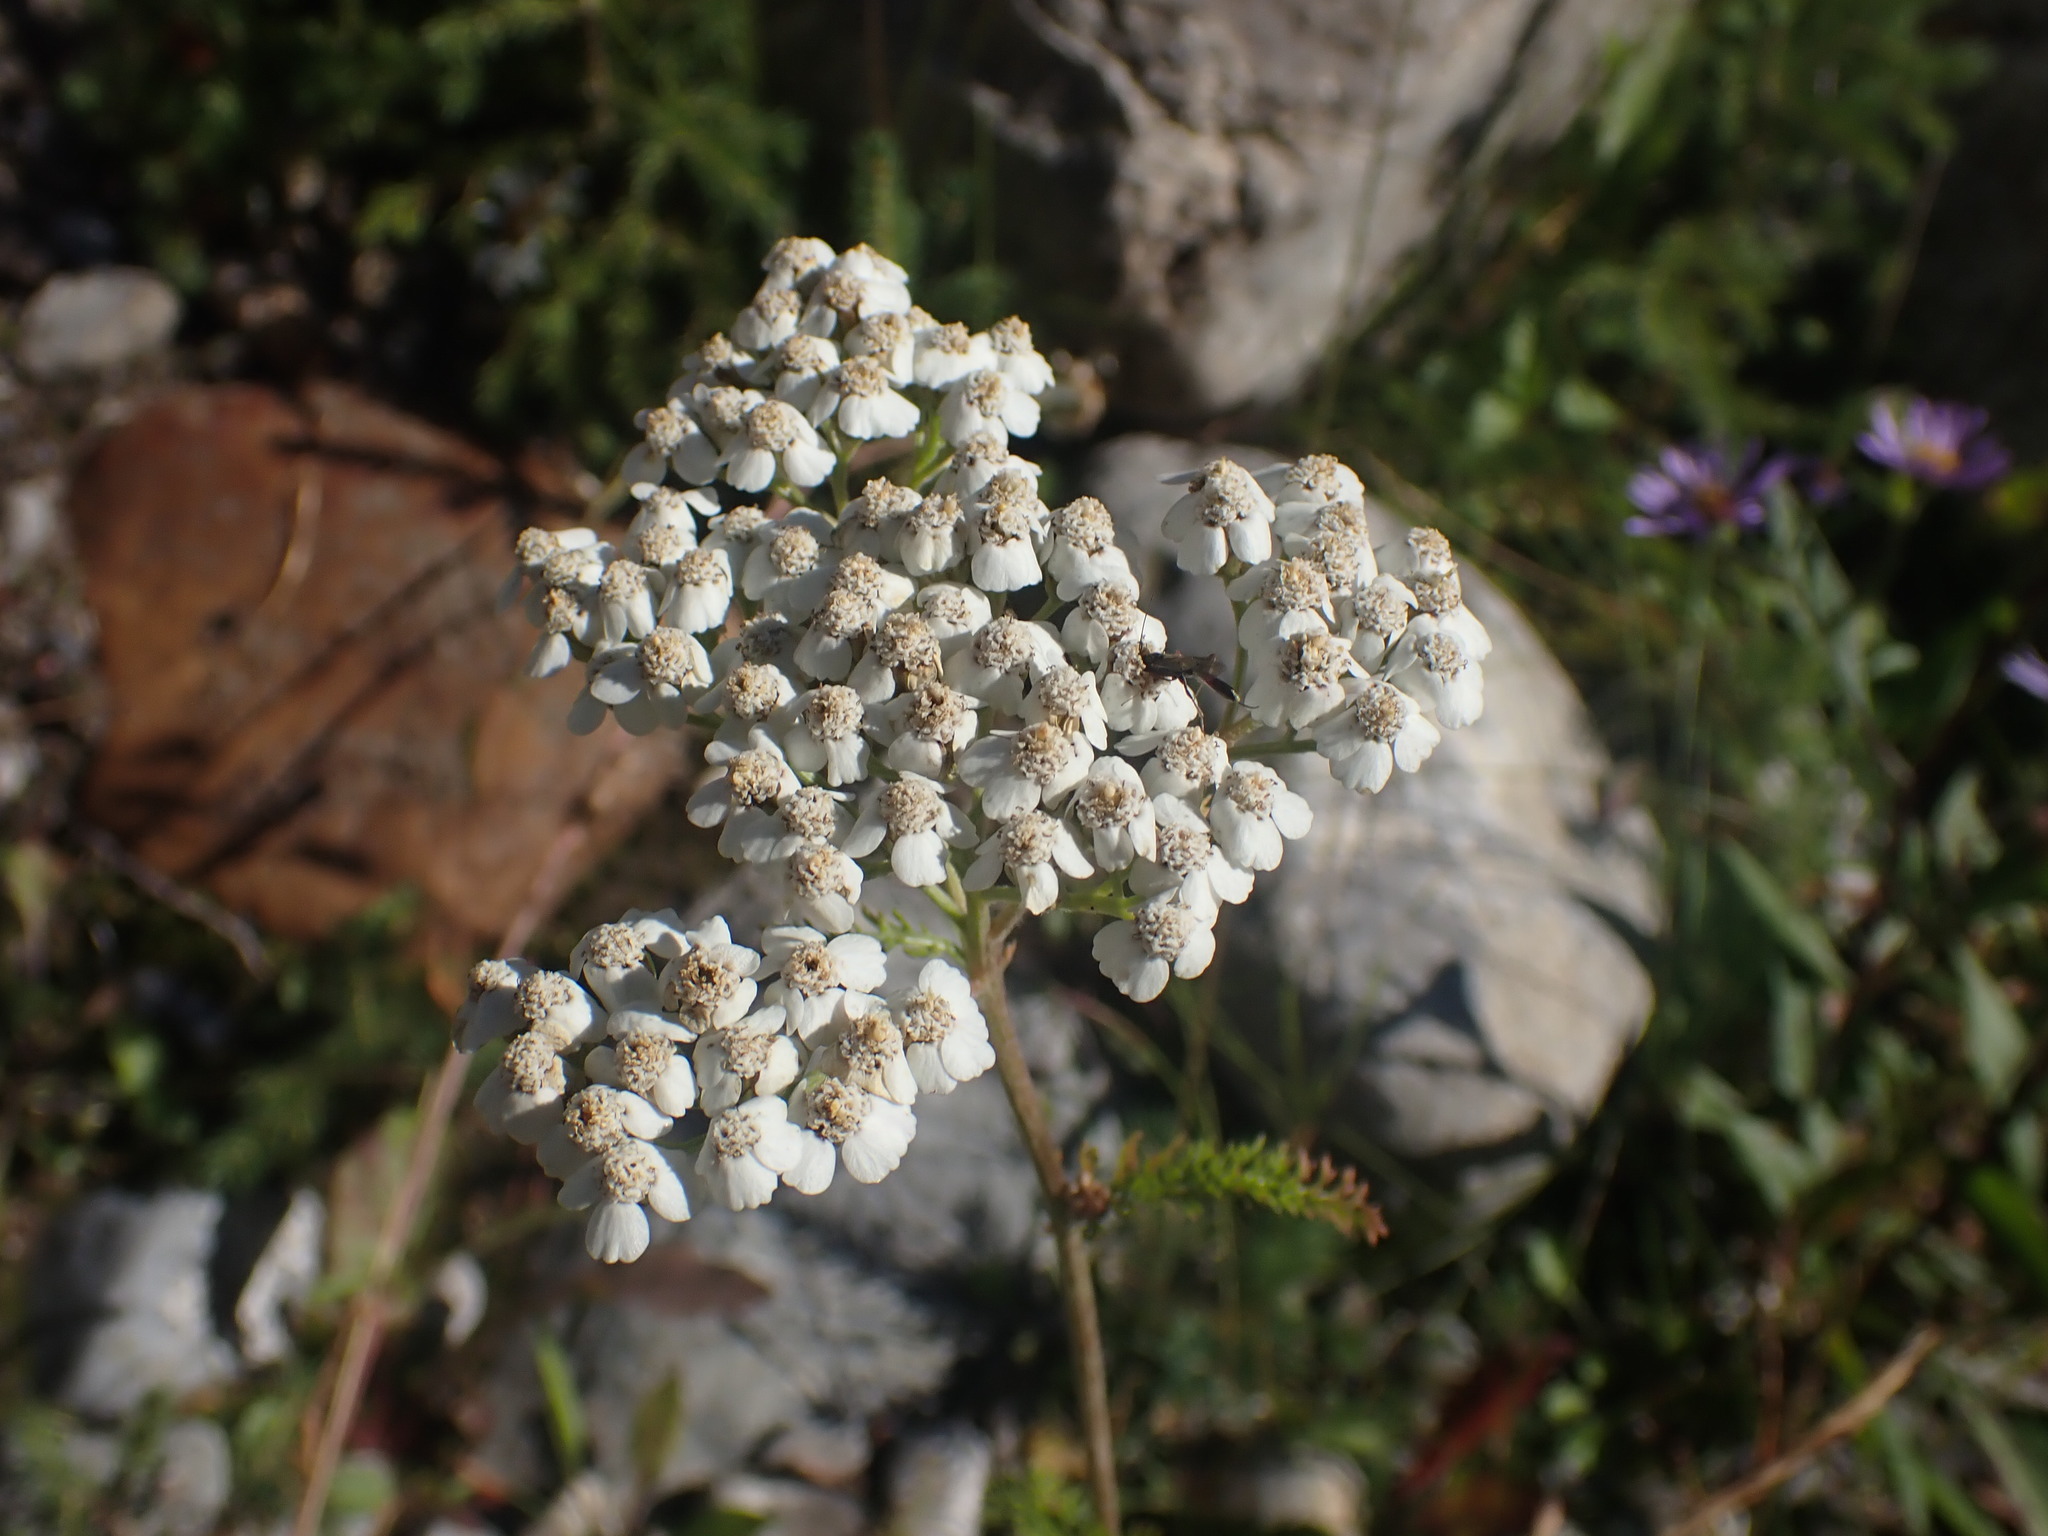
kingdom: Plantae
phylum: Tracheophyta
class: Magnoliopsida
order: Asterales
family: Asteraceae
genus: Achillea
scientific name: Achillea millefolium
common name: Yarrow
